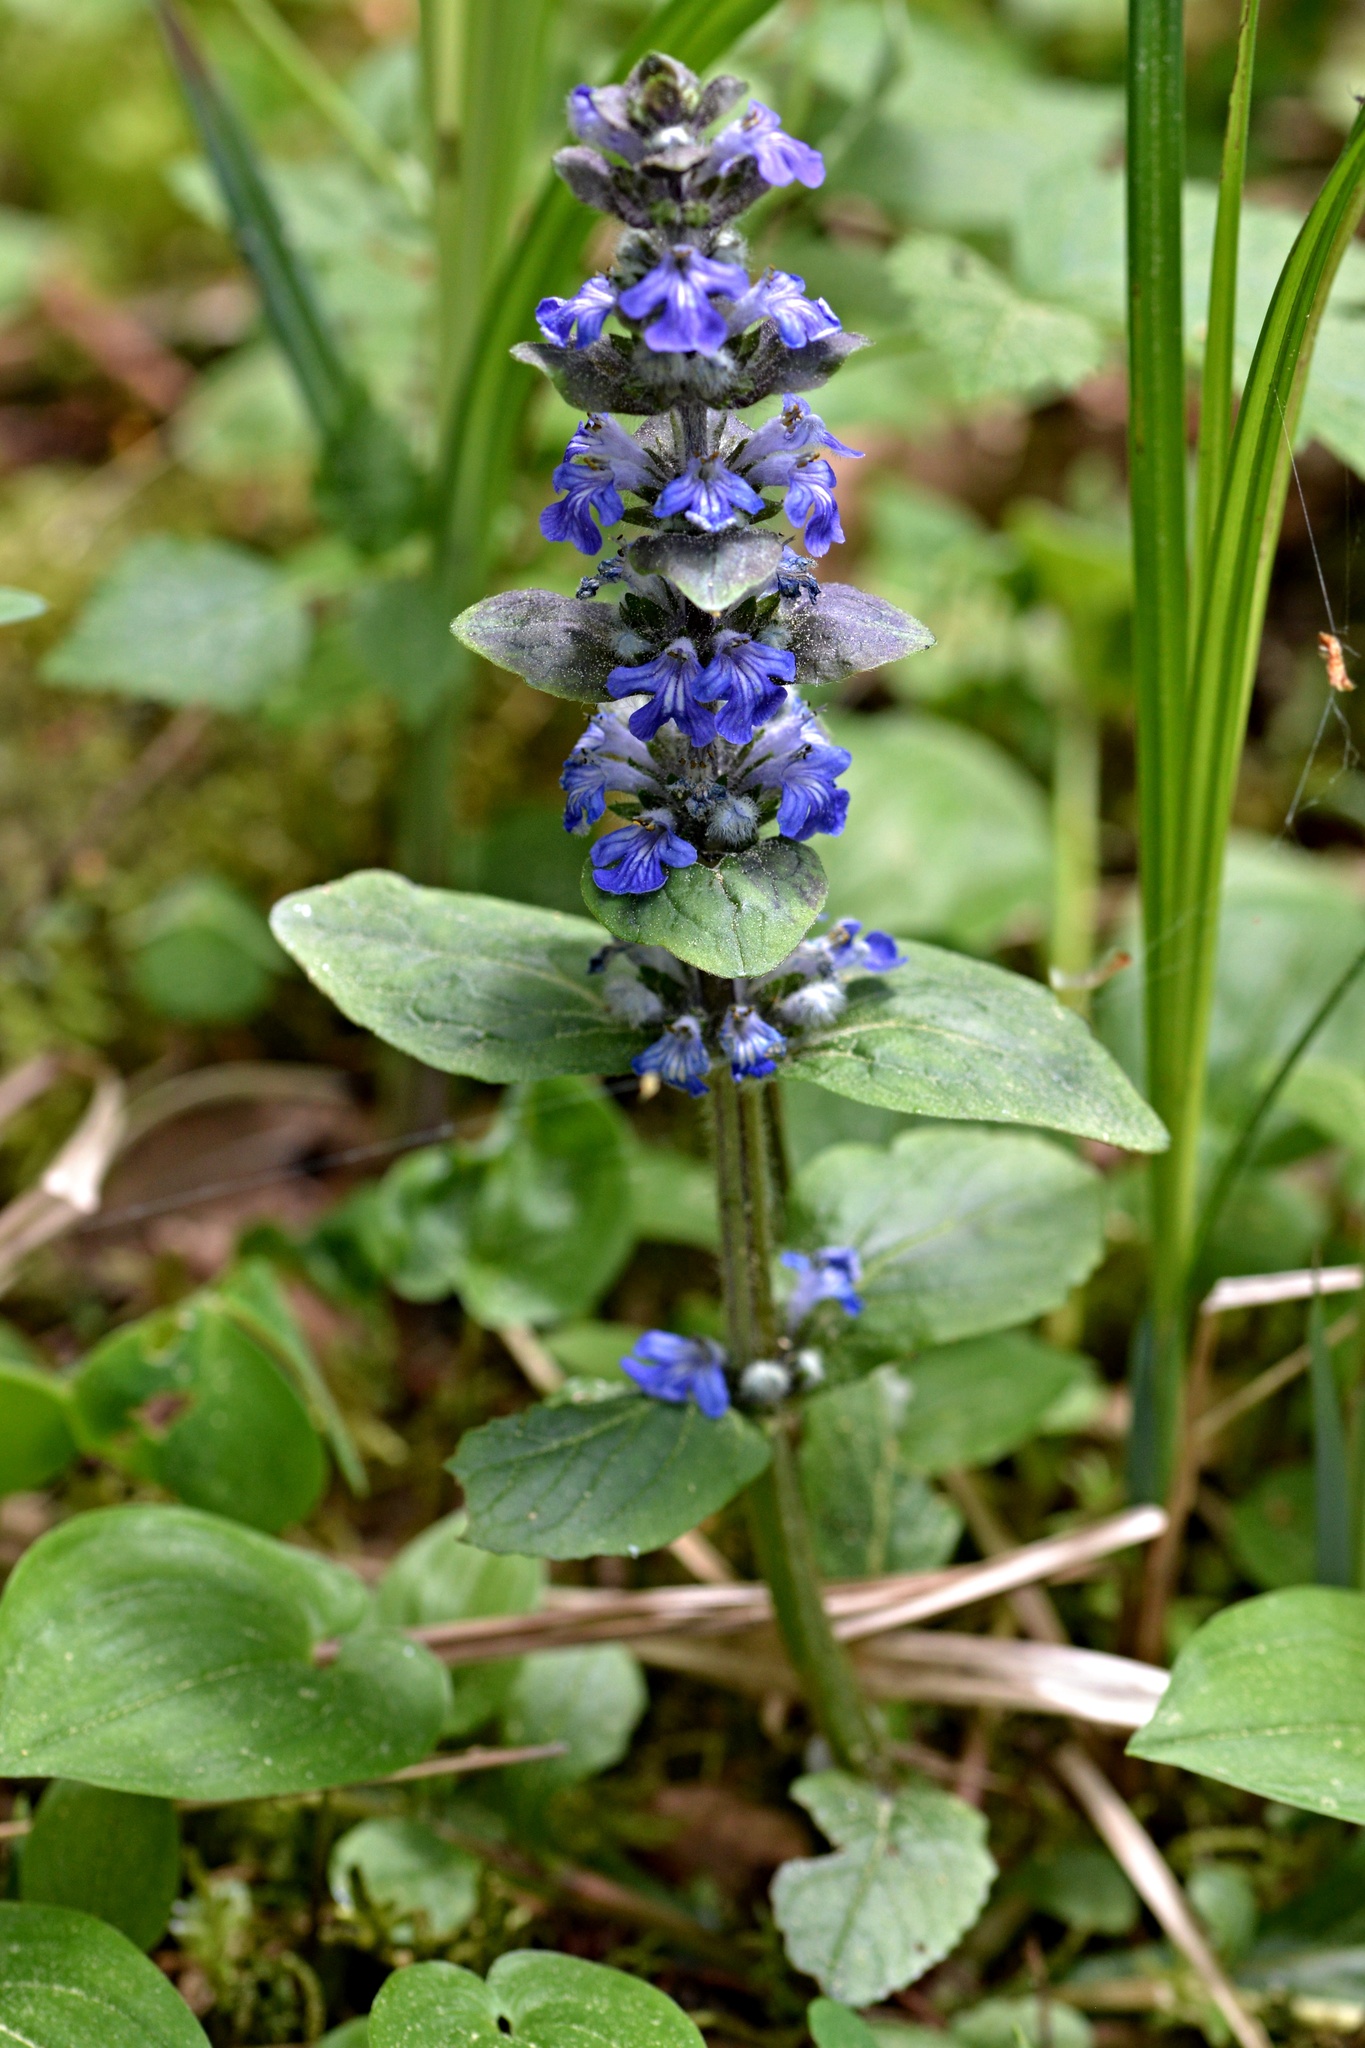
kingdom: Plantae
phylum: Tracheophyta
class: Magnoliopsida
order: Lamiales
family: Lamiaceae
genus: Ajuga
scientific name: Ajuga reptans
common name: Bugle
